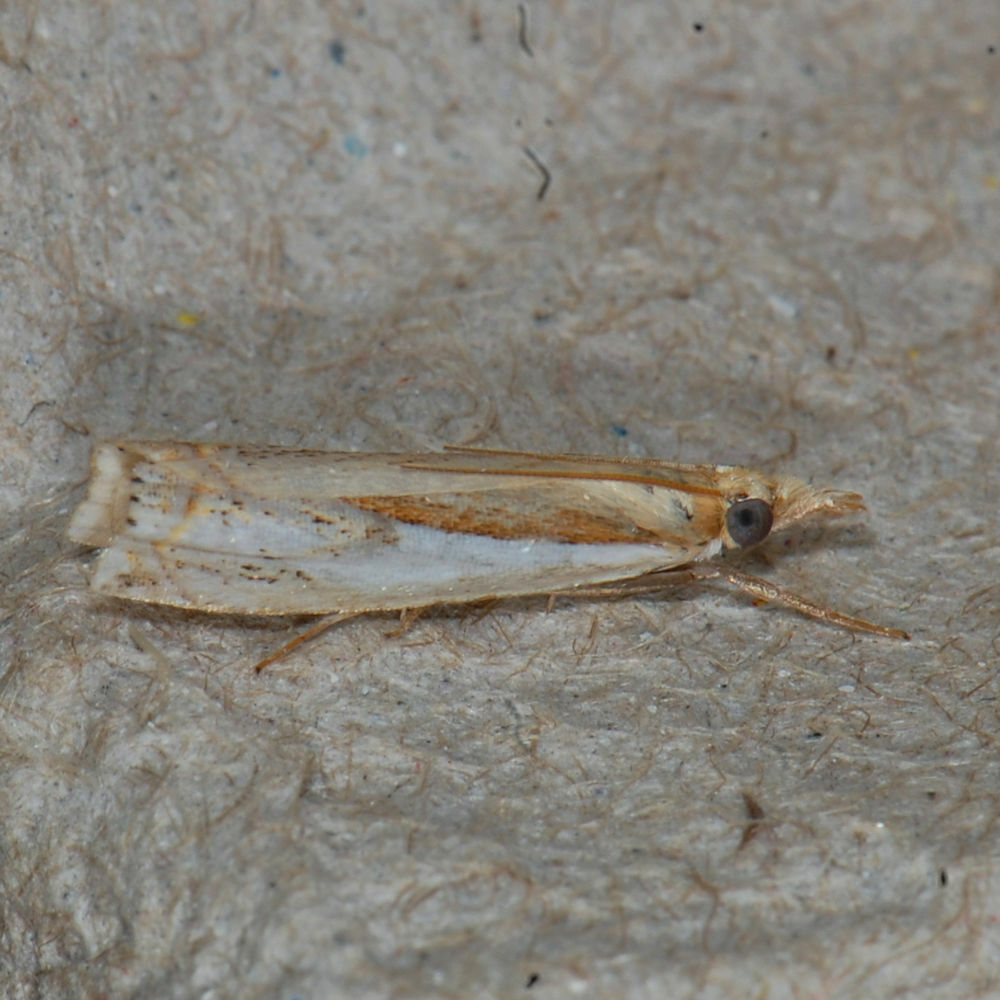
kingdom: Animalia
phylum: Arthropoda
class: Insecta
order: Lepidoptera
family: Crambidae
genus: Crambus
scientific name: Crambus agitatellus
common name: Double-banded grass-veneer
